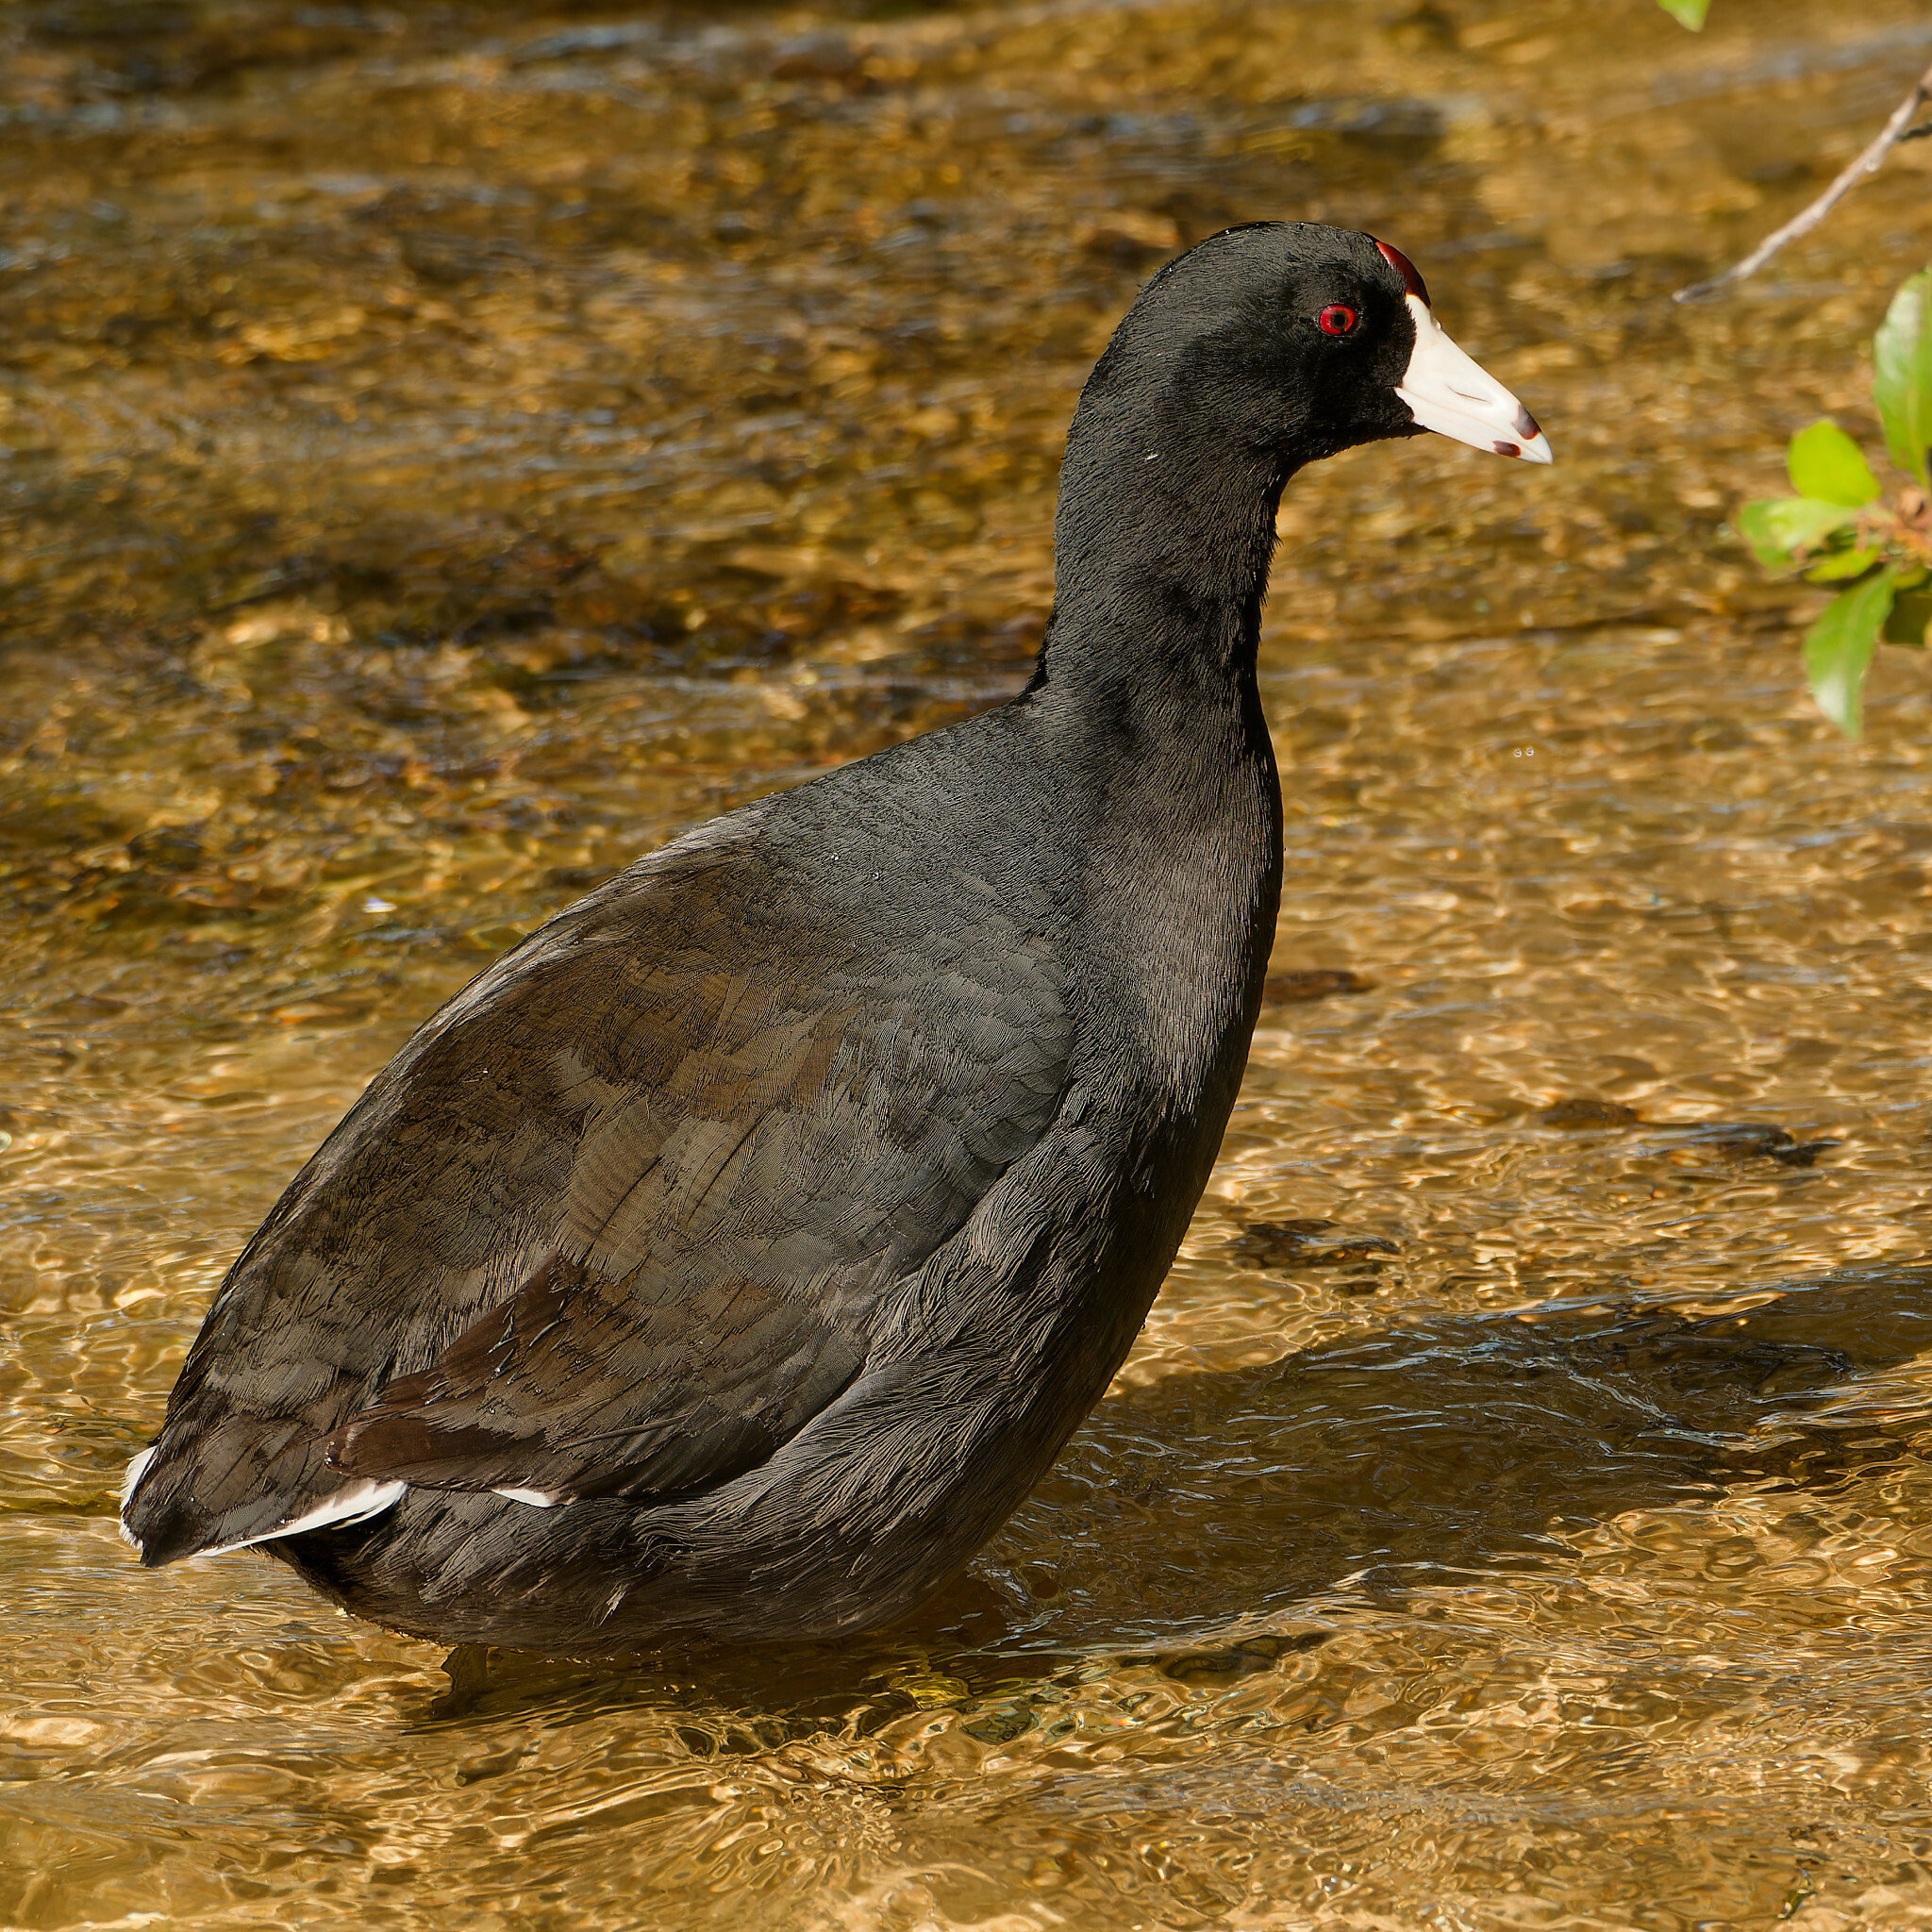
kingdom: Animalia
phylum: Chordata
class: Aves
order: Gruiformes
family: Rallidae
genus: Fulica
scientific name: Fulica americana
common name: American coot
